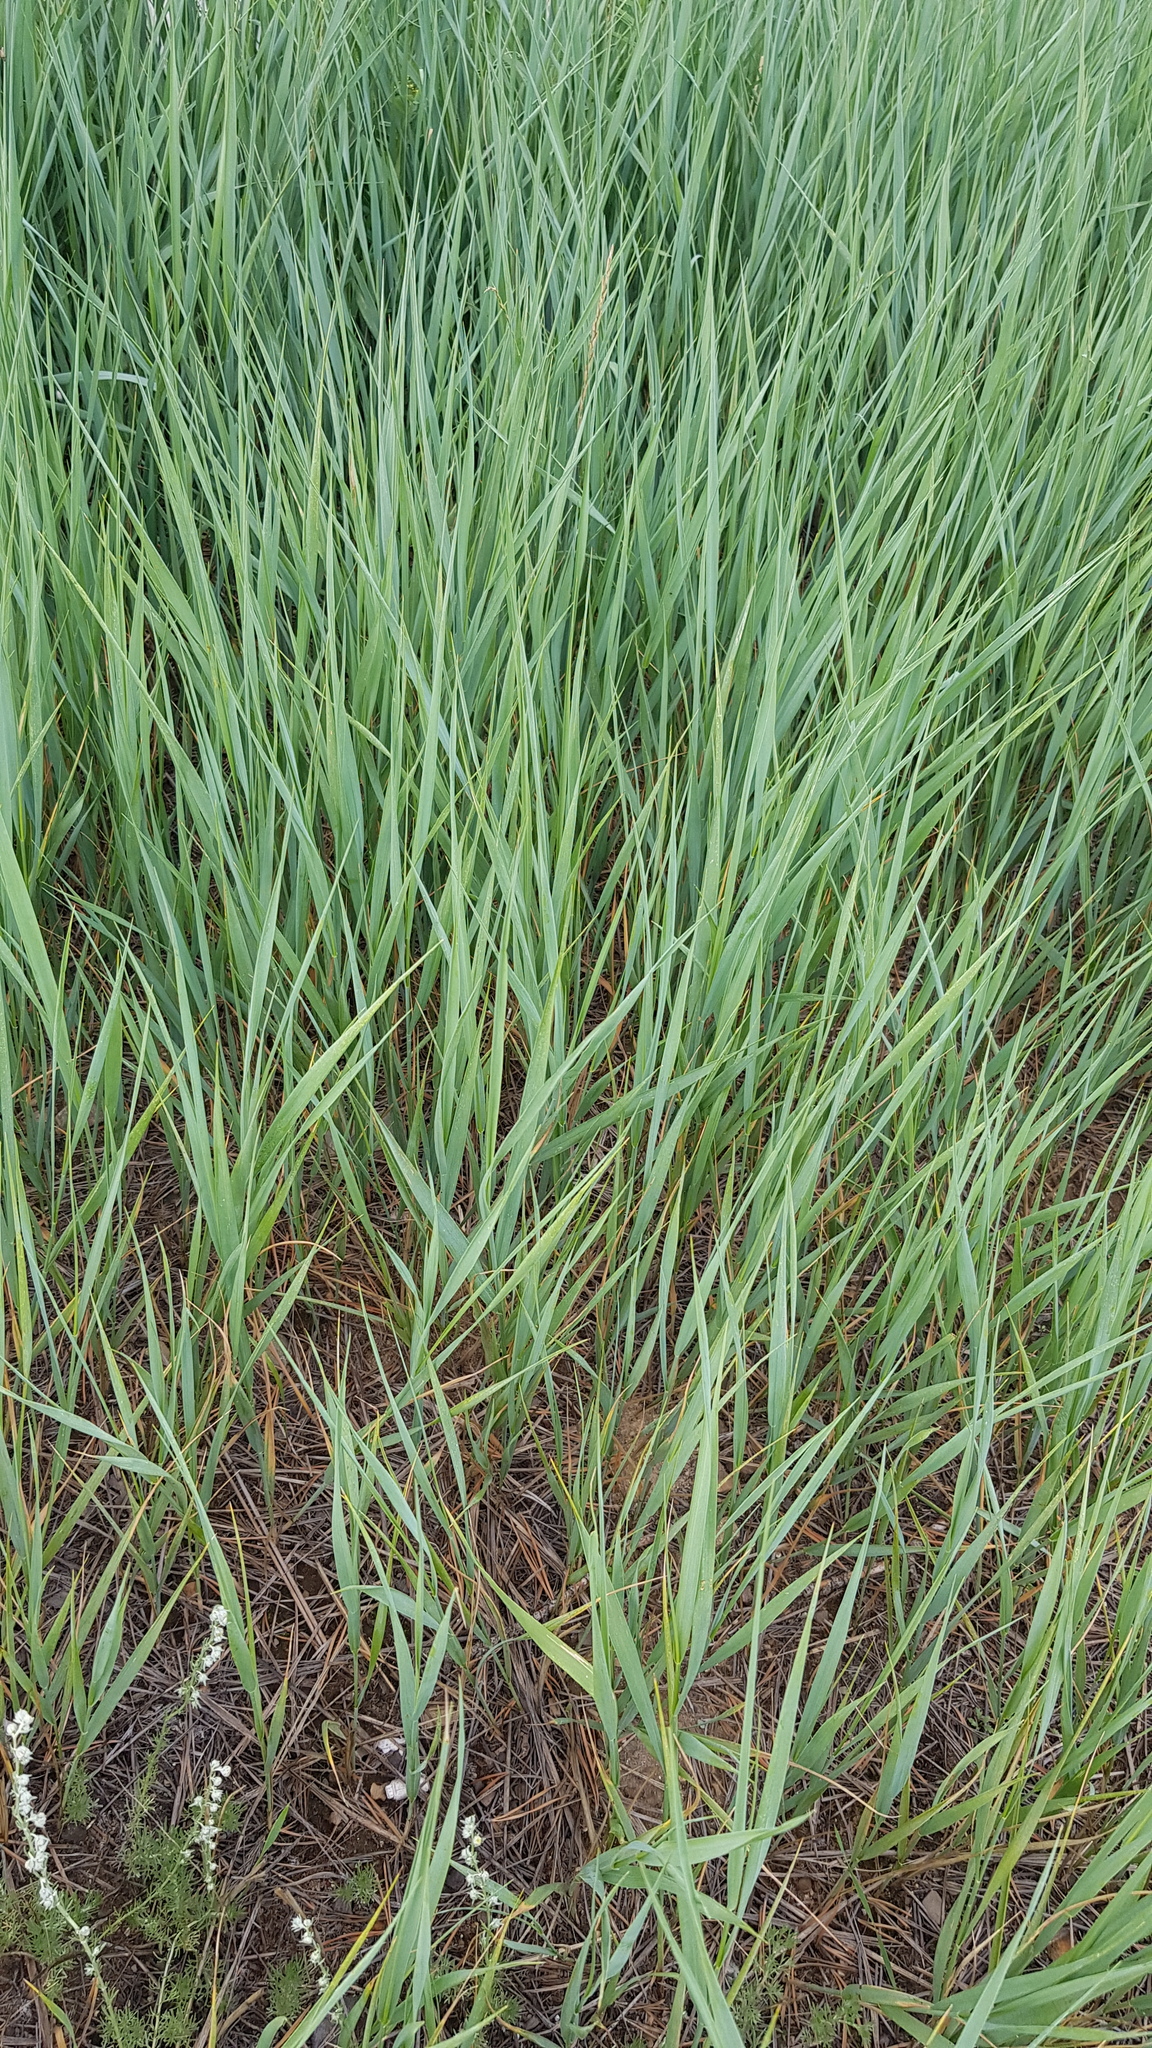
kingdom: Plantae
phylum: Tracheophyta
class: Liliopsida
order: Poales
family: Poaceae
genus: Leymus
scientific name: Leymus chinensis
